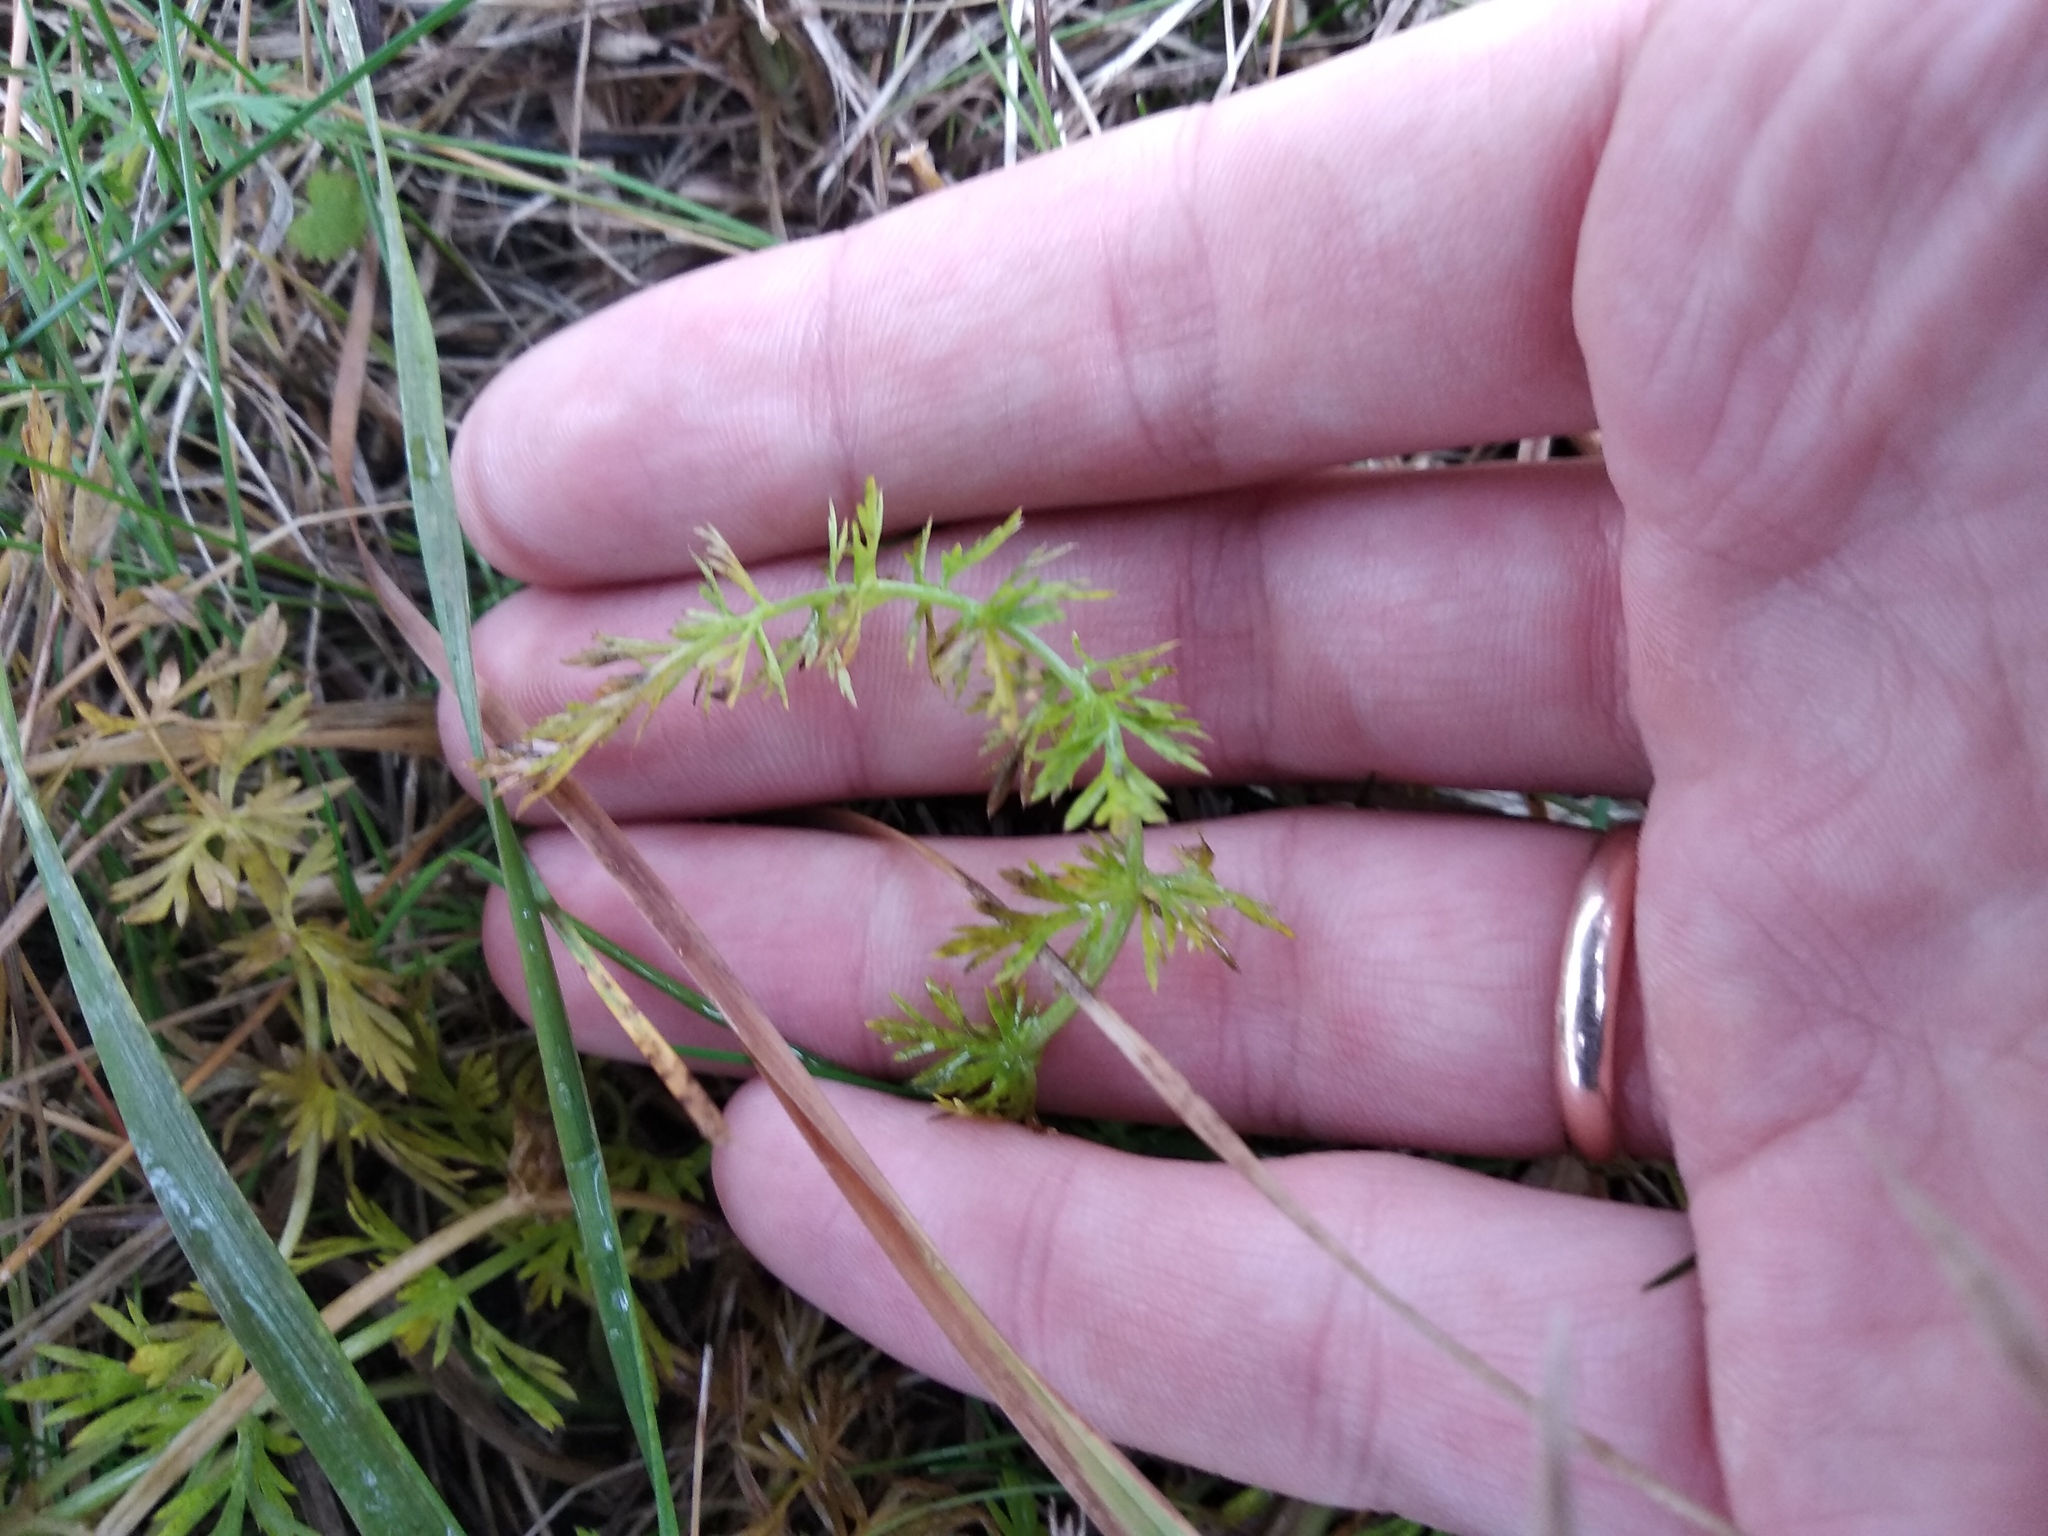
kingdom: Plantae
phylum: Tracheophyta
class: Magnoliopsida
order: Apiales
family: Apiaceae
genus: Carum
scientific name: Carum carvi
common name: Caraway
